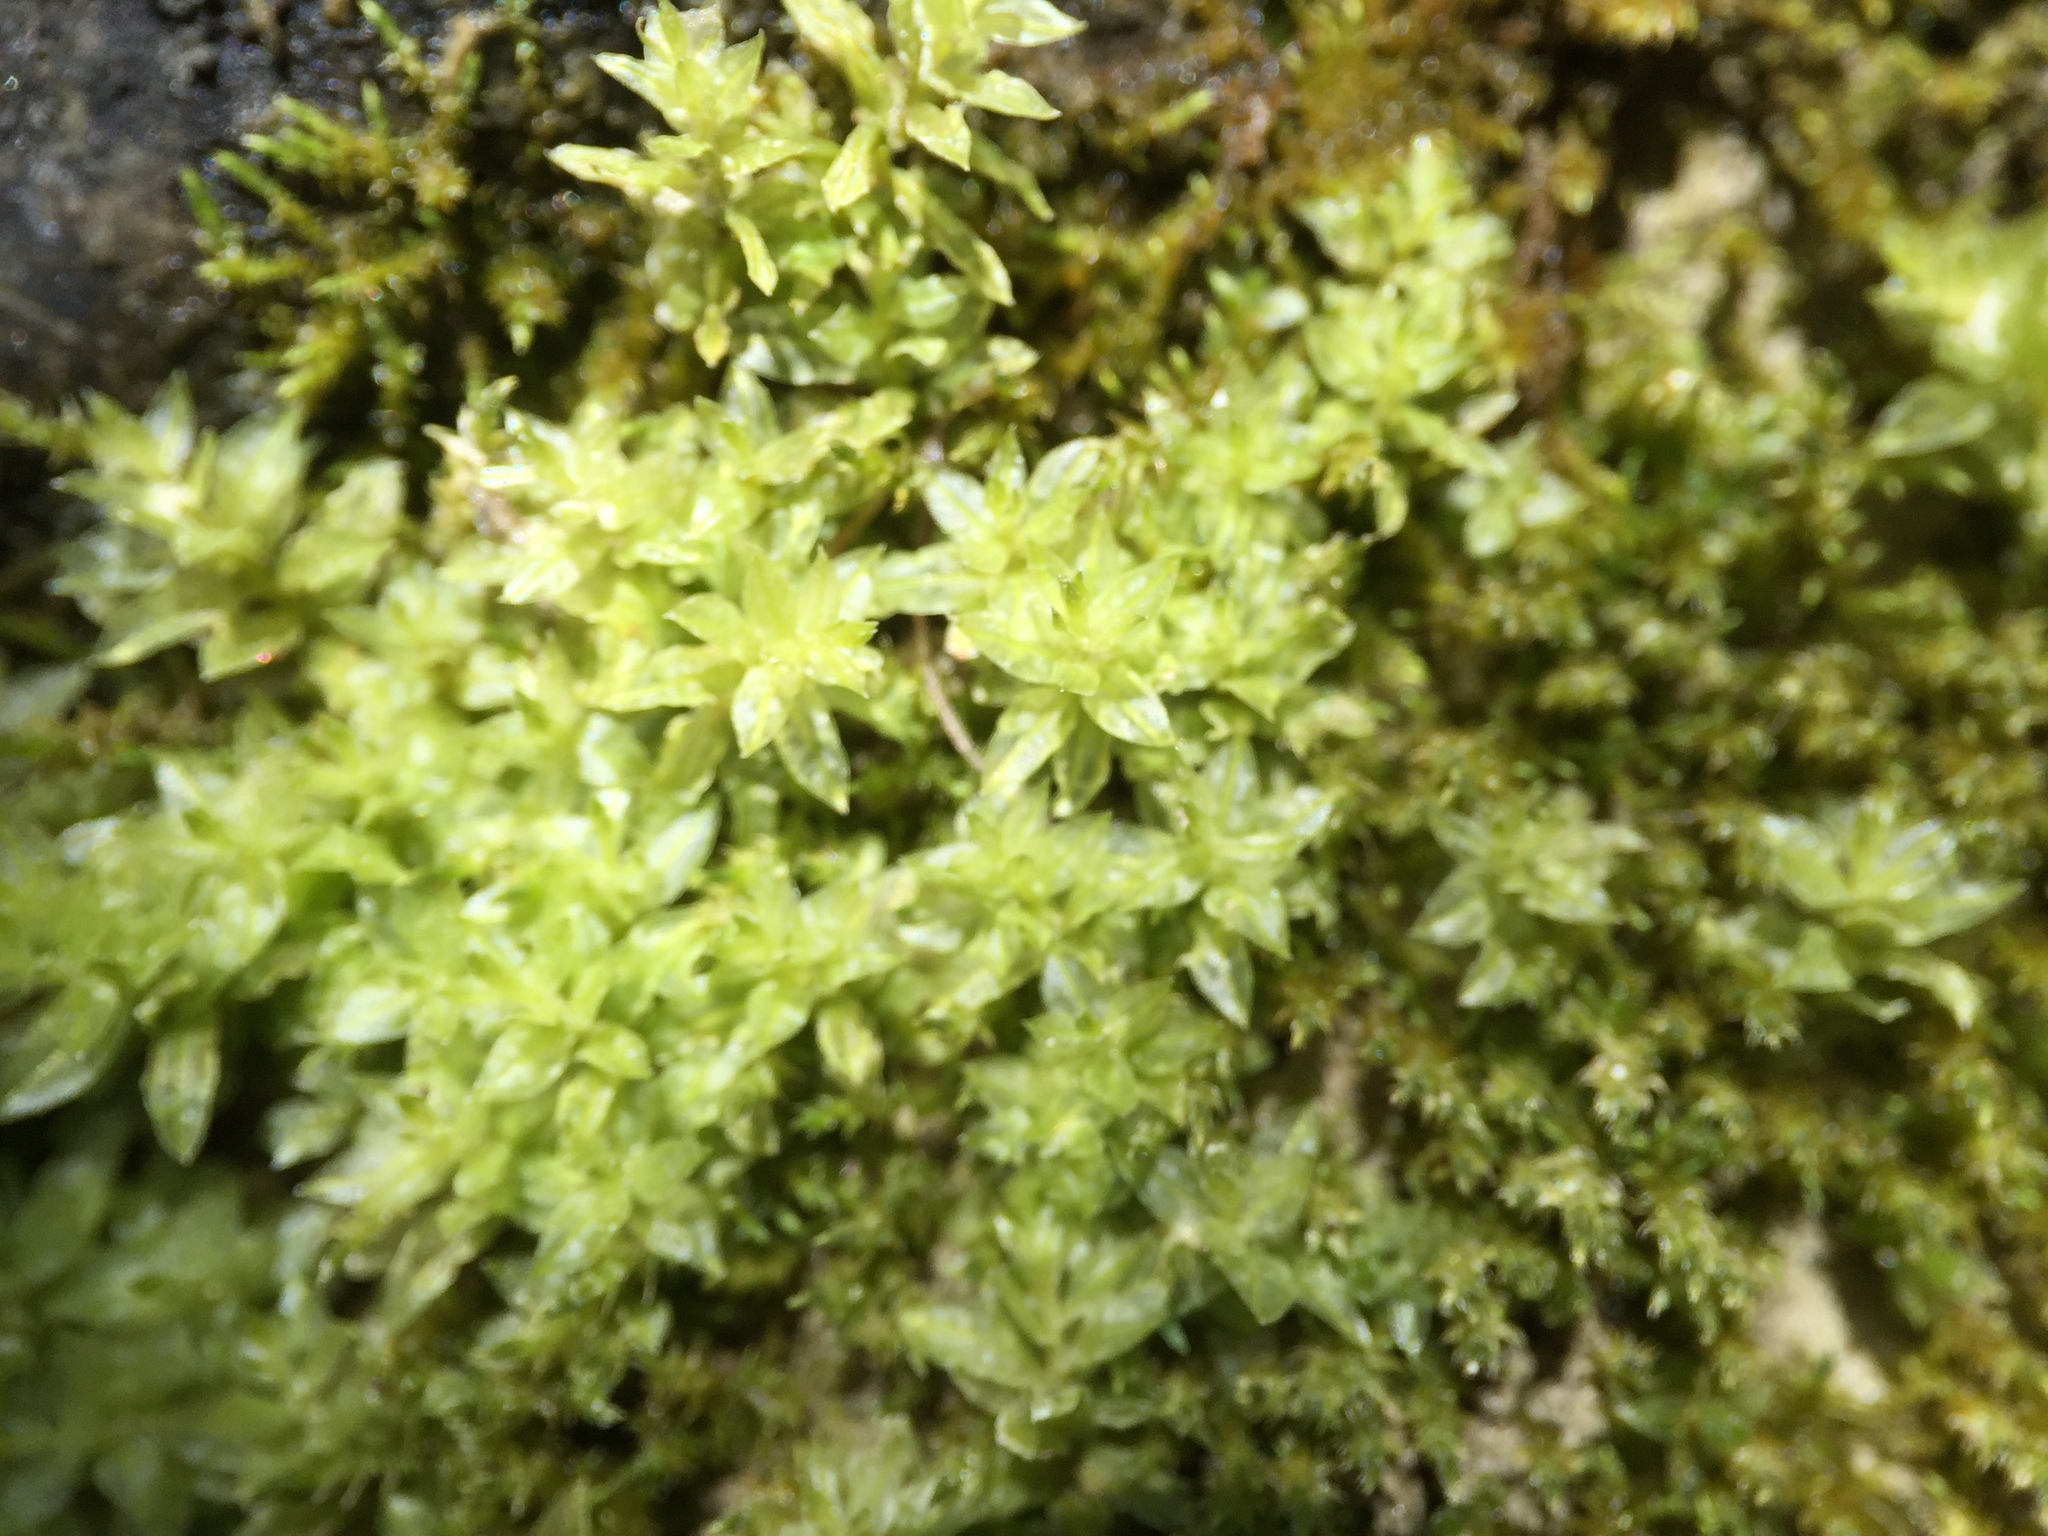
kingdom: Plantae
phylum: Bryophyta
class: Bryopsida
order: Bryales
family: Mniaceae
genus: Mnium
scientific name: Mnium hornum
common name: Swan's-neck leafy moss
